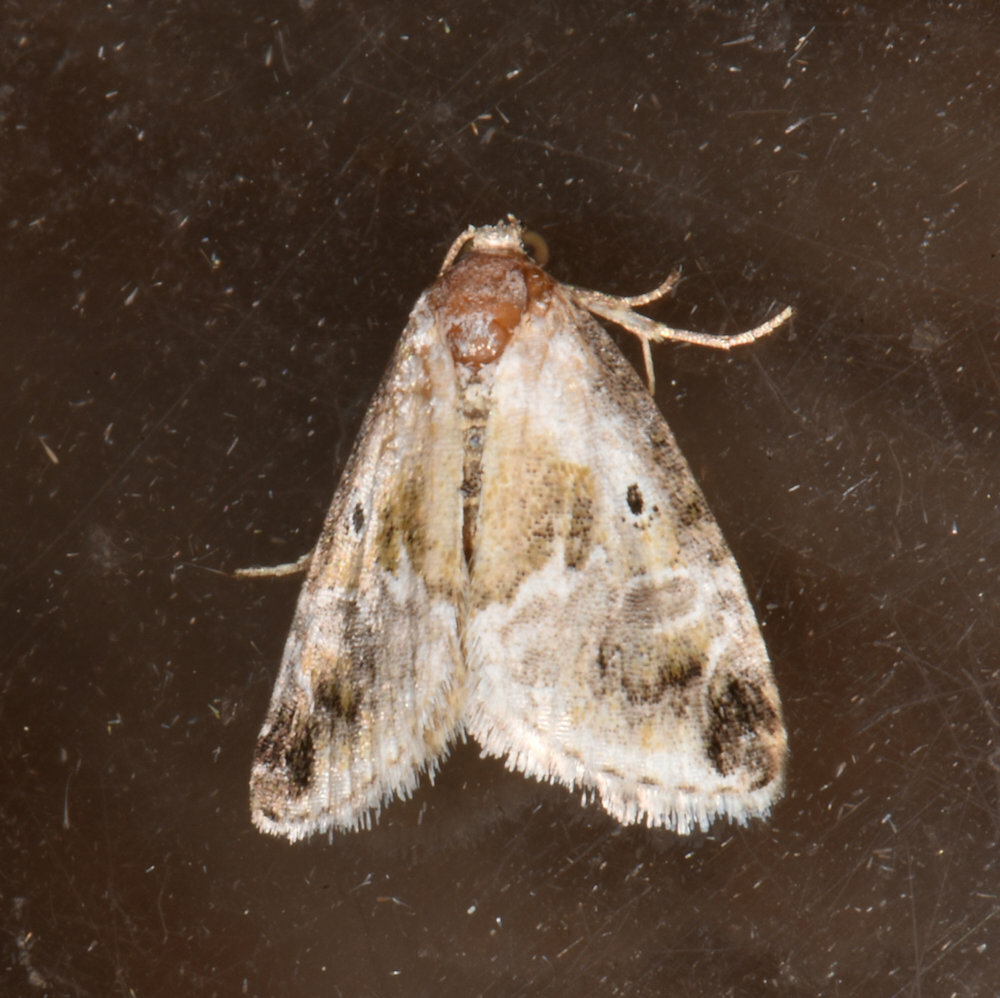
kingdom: Animalia
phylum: Arthropoda
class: Insecta
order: Lepidoptera
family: Noctuidae
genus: Maliattha
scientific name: Maliattha synochitis
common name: Black-dotted glyph
